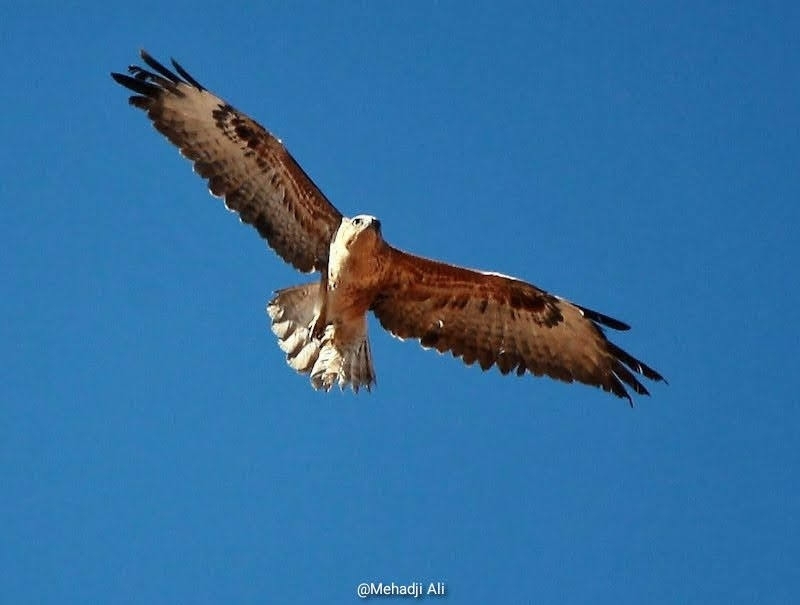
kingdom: Animalia
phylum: Chordata
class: Aves
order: Accipitriformes
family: Accipitridae
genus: Buteo
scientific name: Buteo rufinus
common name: Long-legged buzzard
